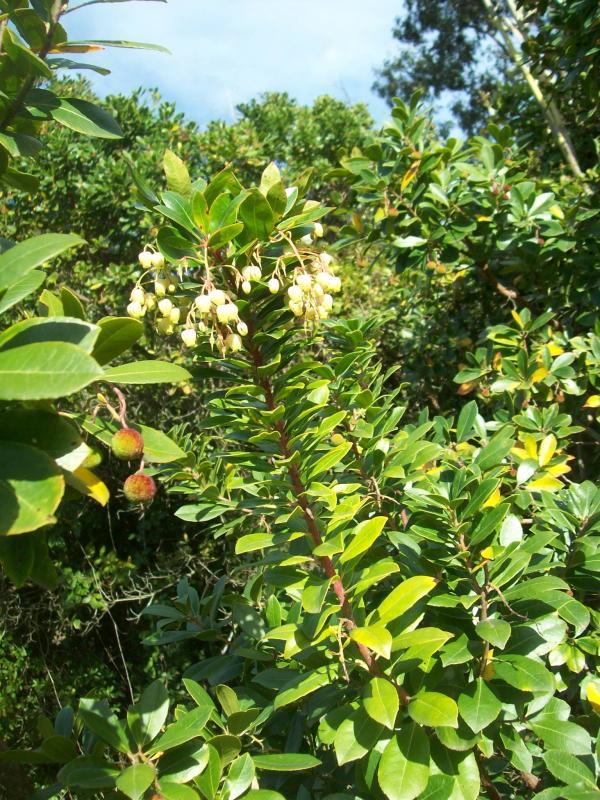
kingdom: Plantae
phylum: Tracheophyta
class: Magnoliopsida
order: Ericales
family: Ericaceae
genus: Arbutus
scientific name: Arbutus unedo
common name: Strawberry-tree
